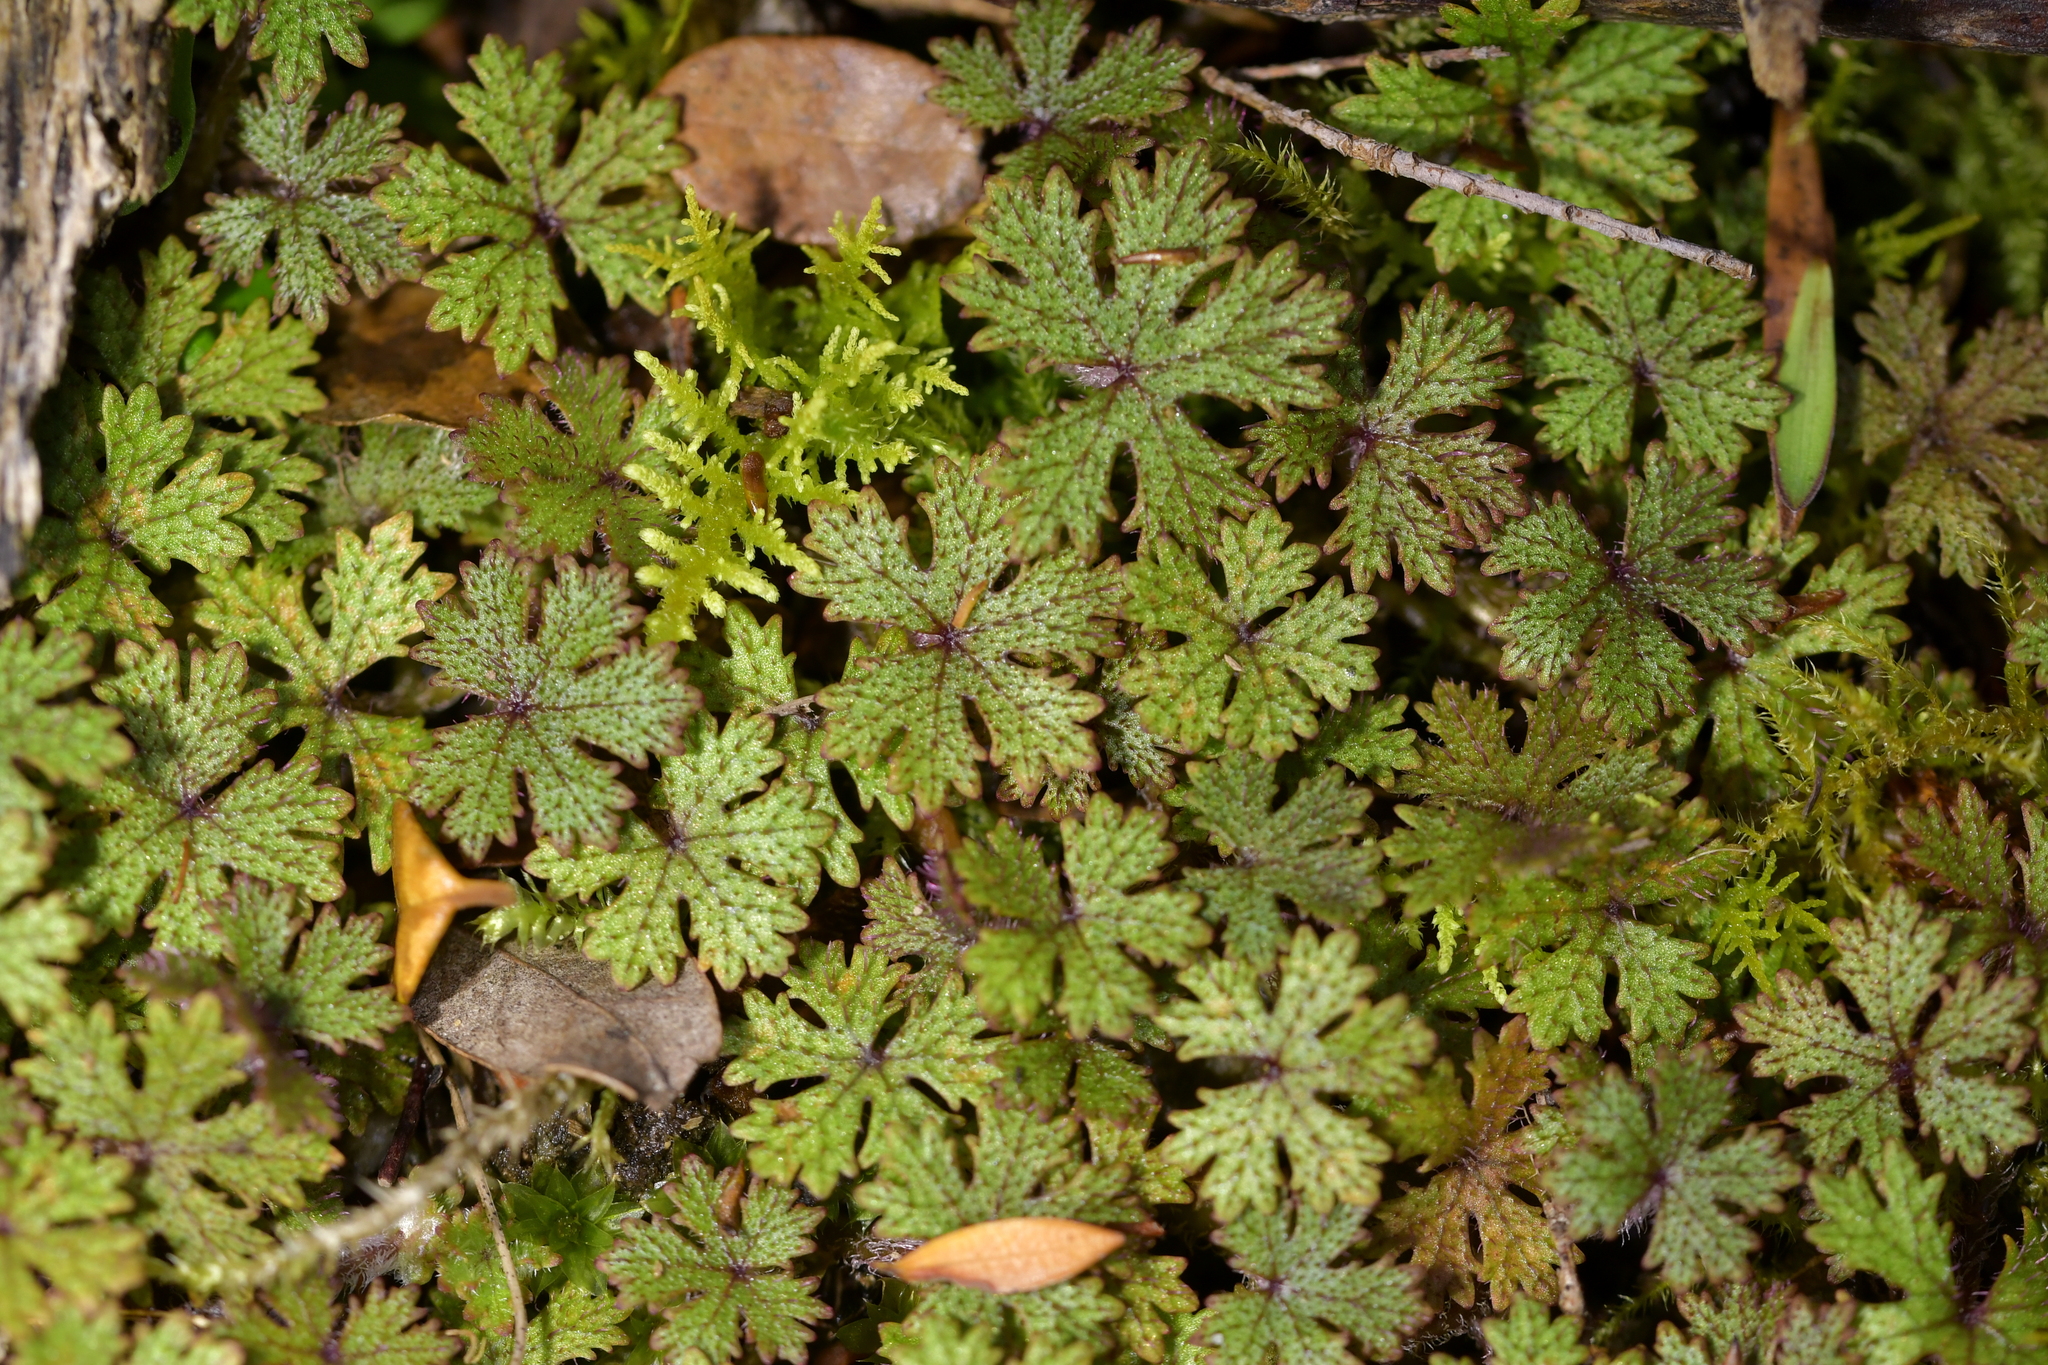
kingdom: Plantae
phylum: Tracheophyta
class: Magnoliopsida
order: Apiales
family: Araliaceae
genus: Hydrocotyle
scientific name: Hydrocotyle dissecta
